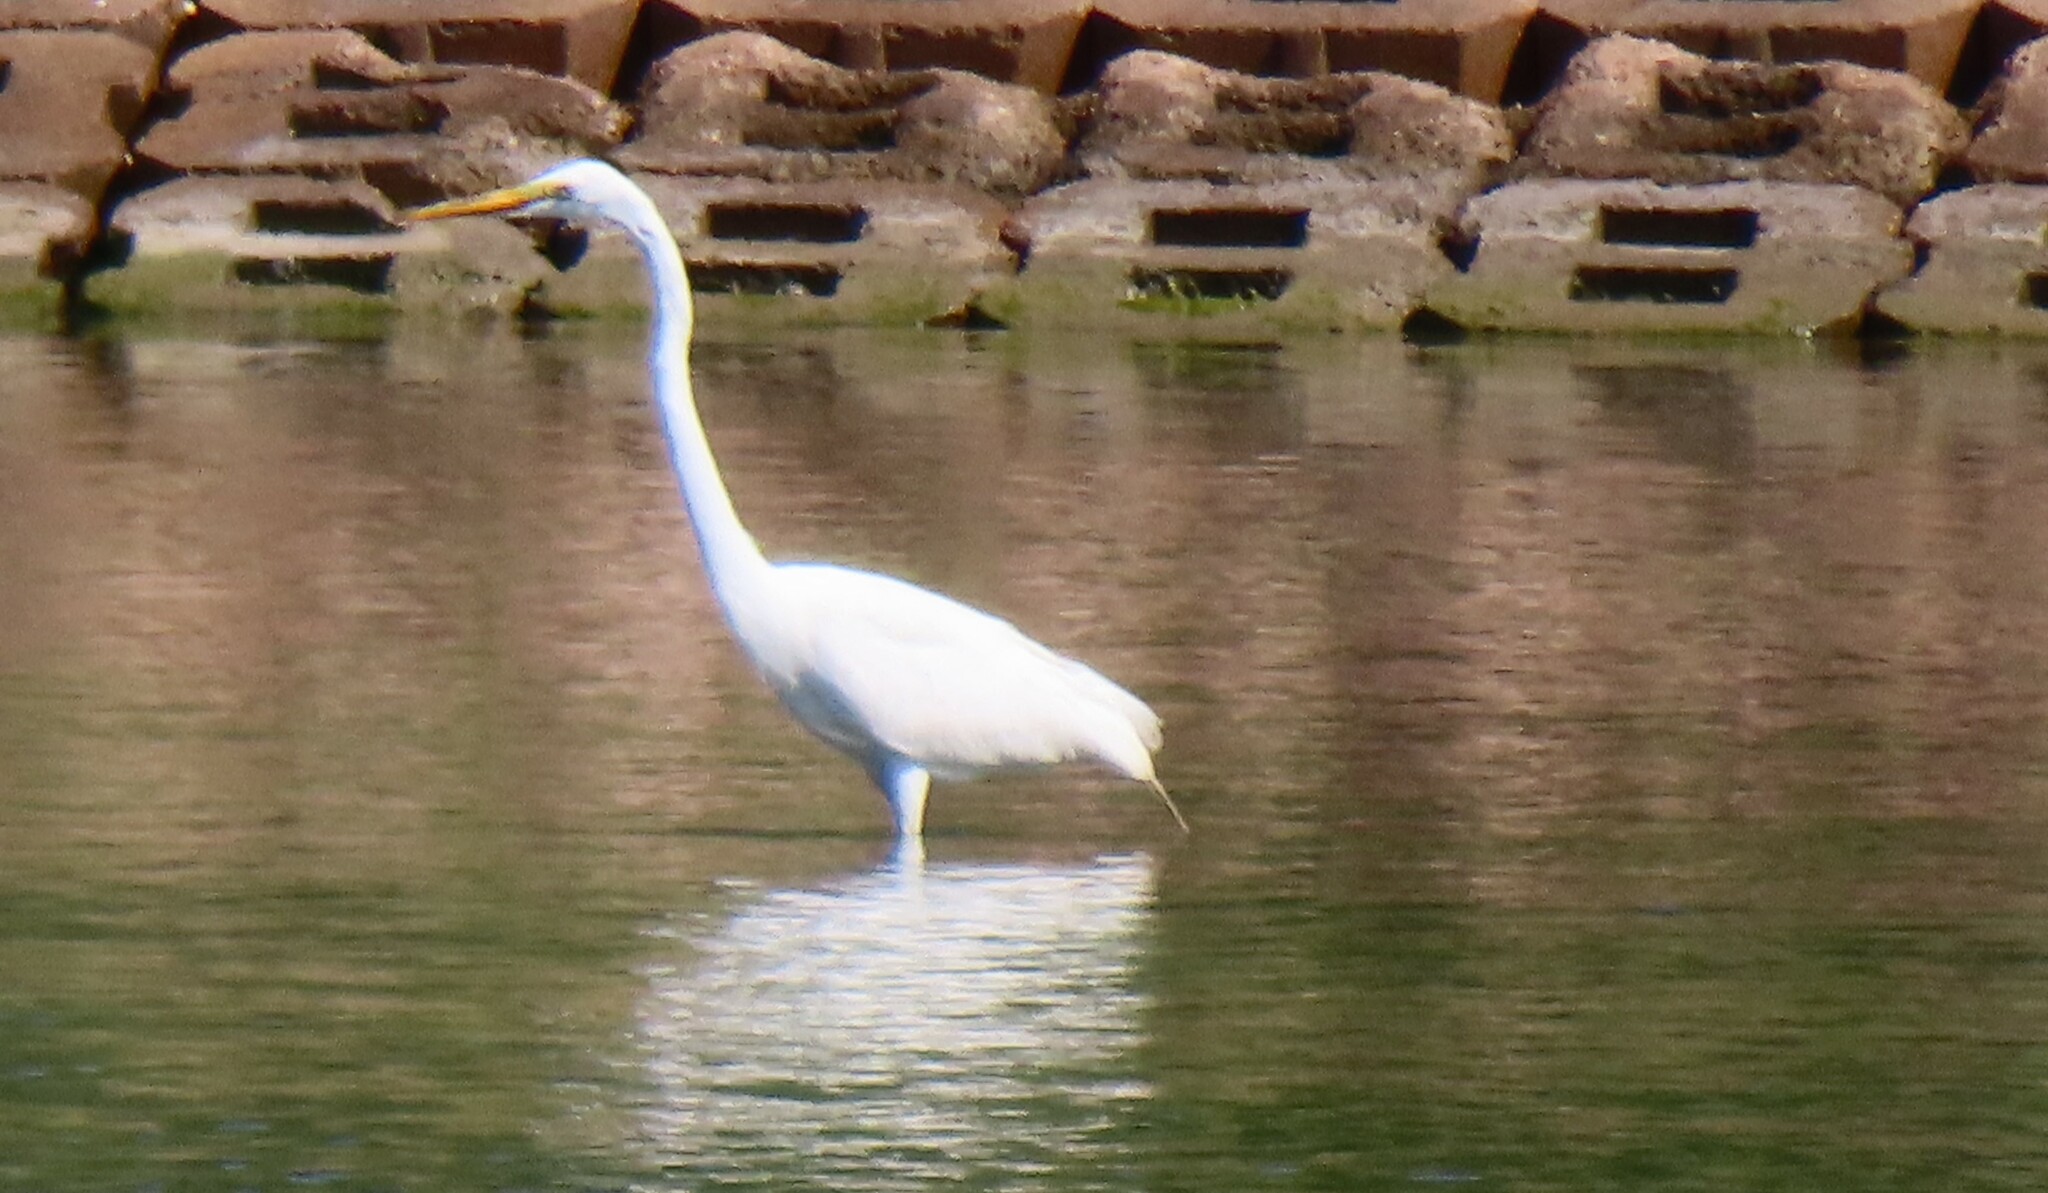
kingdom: Animalia
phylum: Chordata
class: Aves
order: Pelecaniformes
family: Ardeidae
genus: Ardea
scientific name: Ardea alba
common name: Great egret
